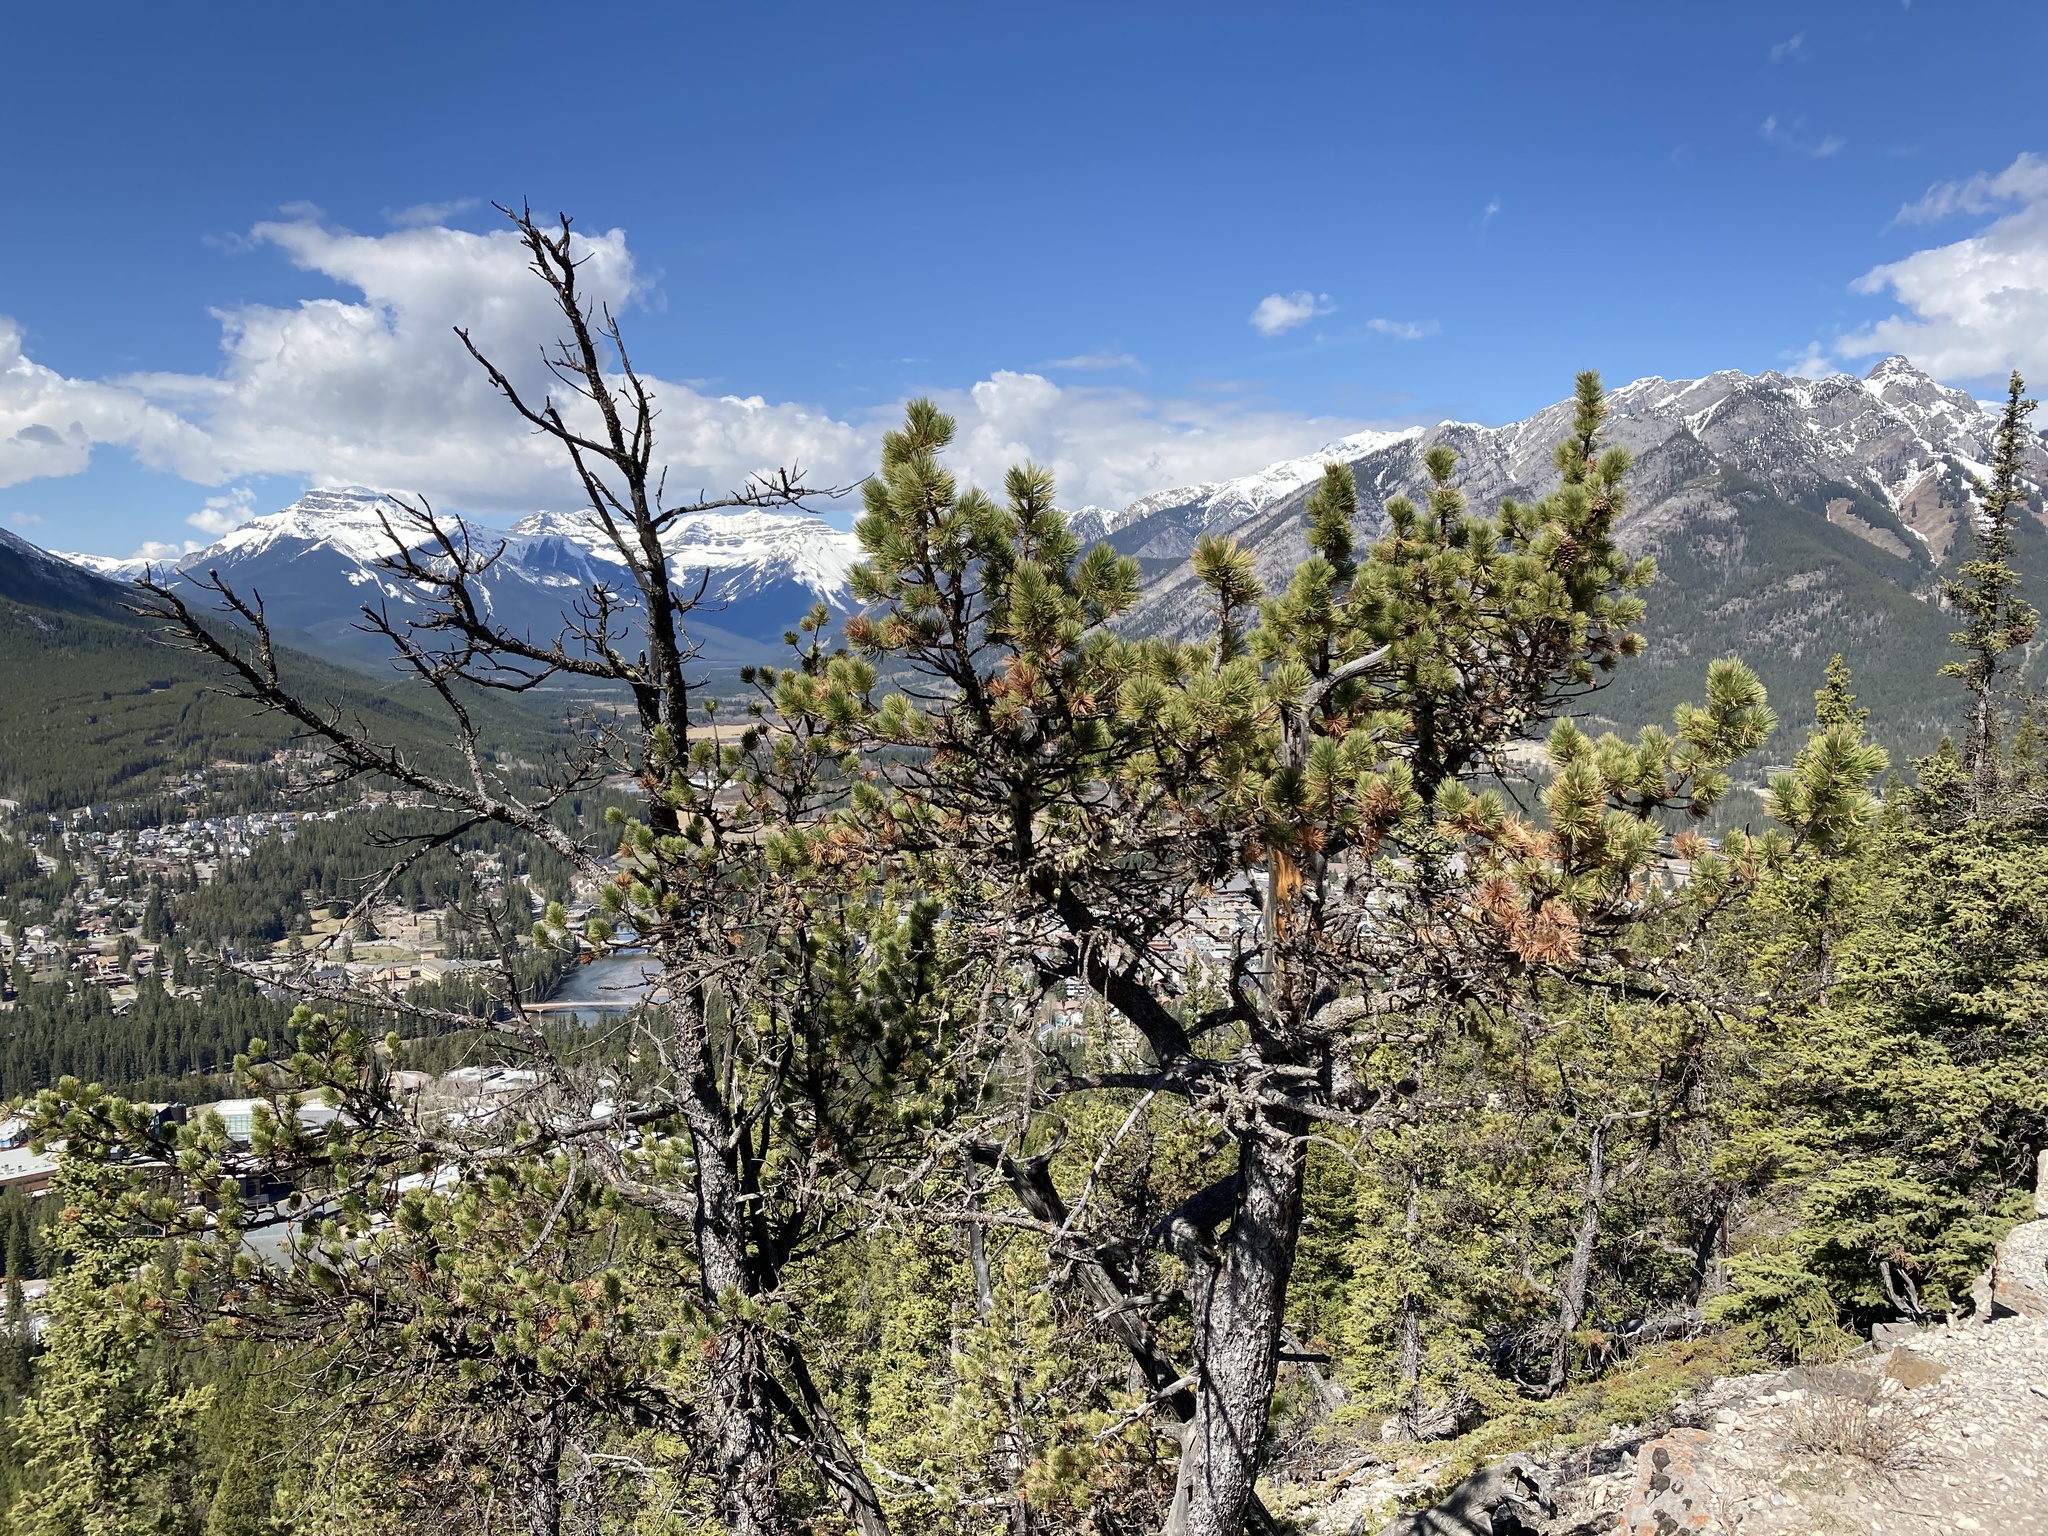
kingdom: Plantae
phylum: Tracheophyta
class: Pinopsida
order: Pinales
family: Pinaceae
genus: Pinus
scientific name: Pinus flexilis
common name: Limber pine
